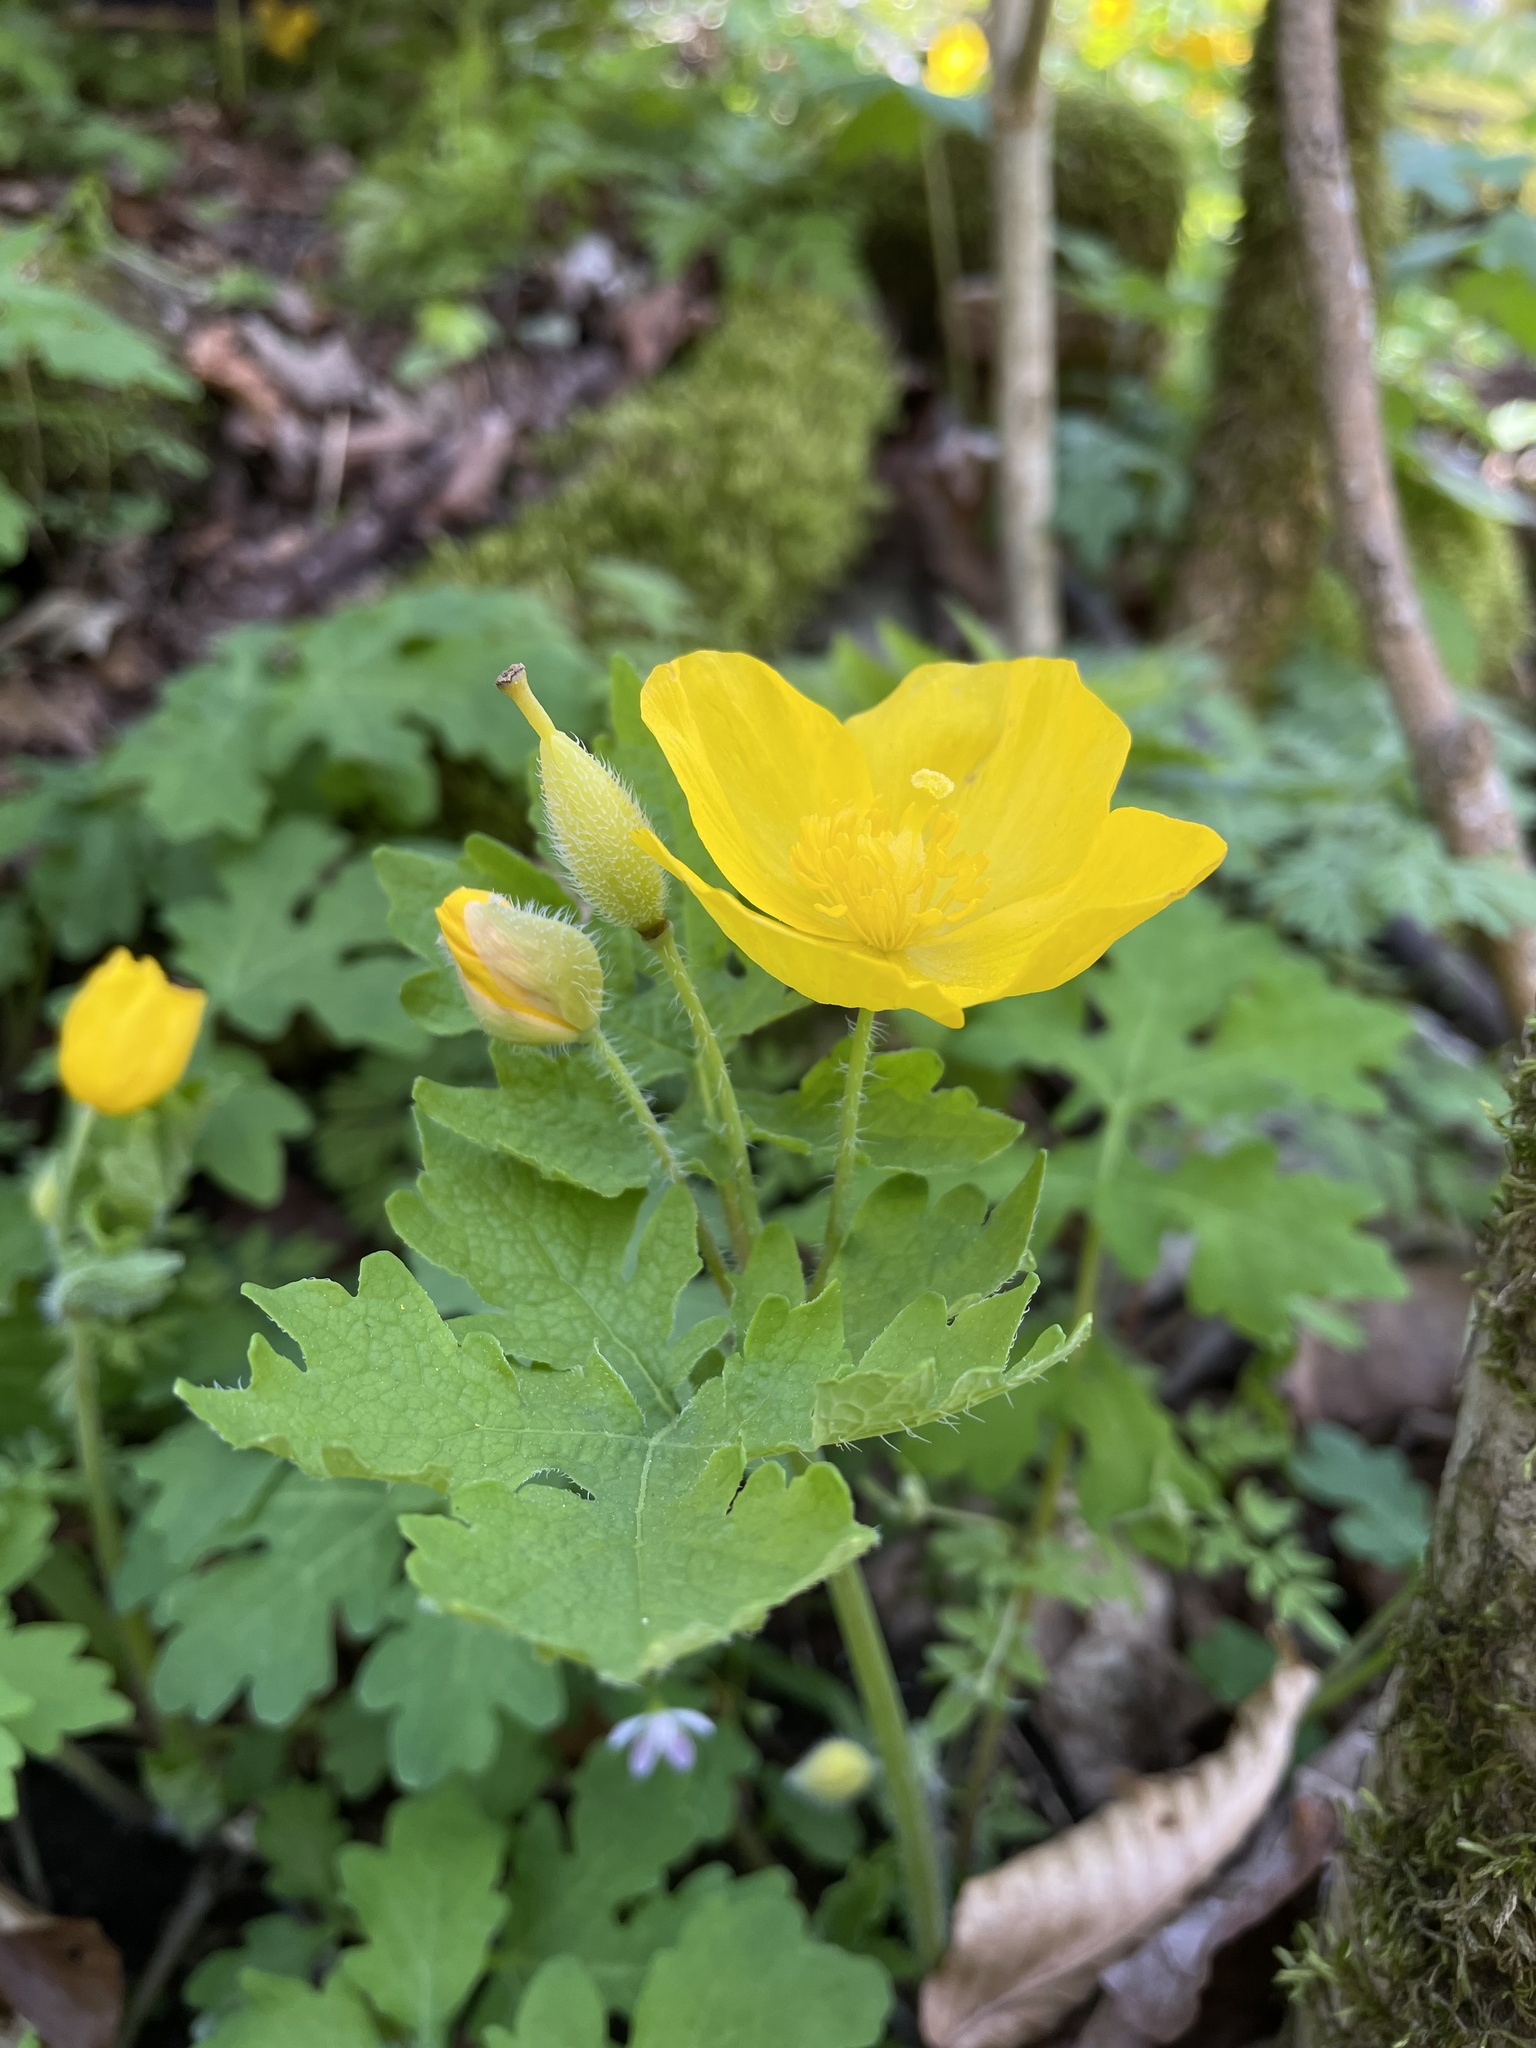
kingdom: Plantae
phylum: Tracheophyta
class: Magnoliopsida
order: Ranunculales
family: Papaveraceae
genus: Stylophorum
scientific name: Stylophorum diphyllum
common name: Celandine poppy
